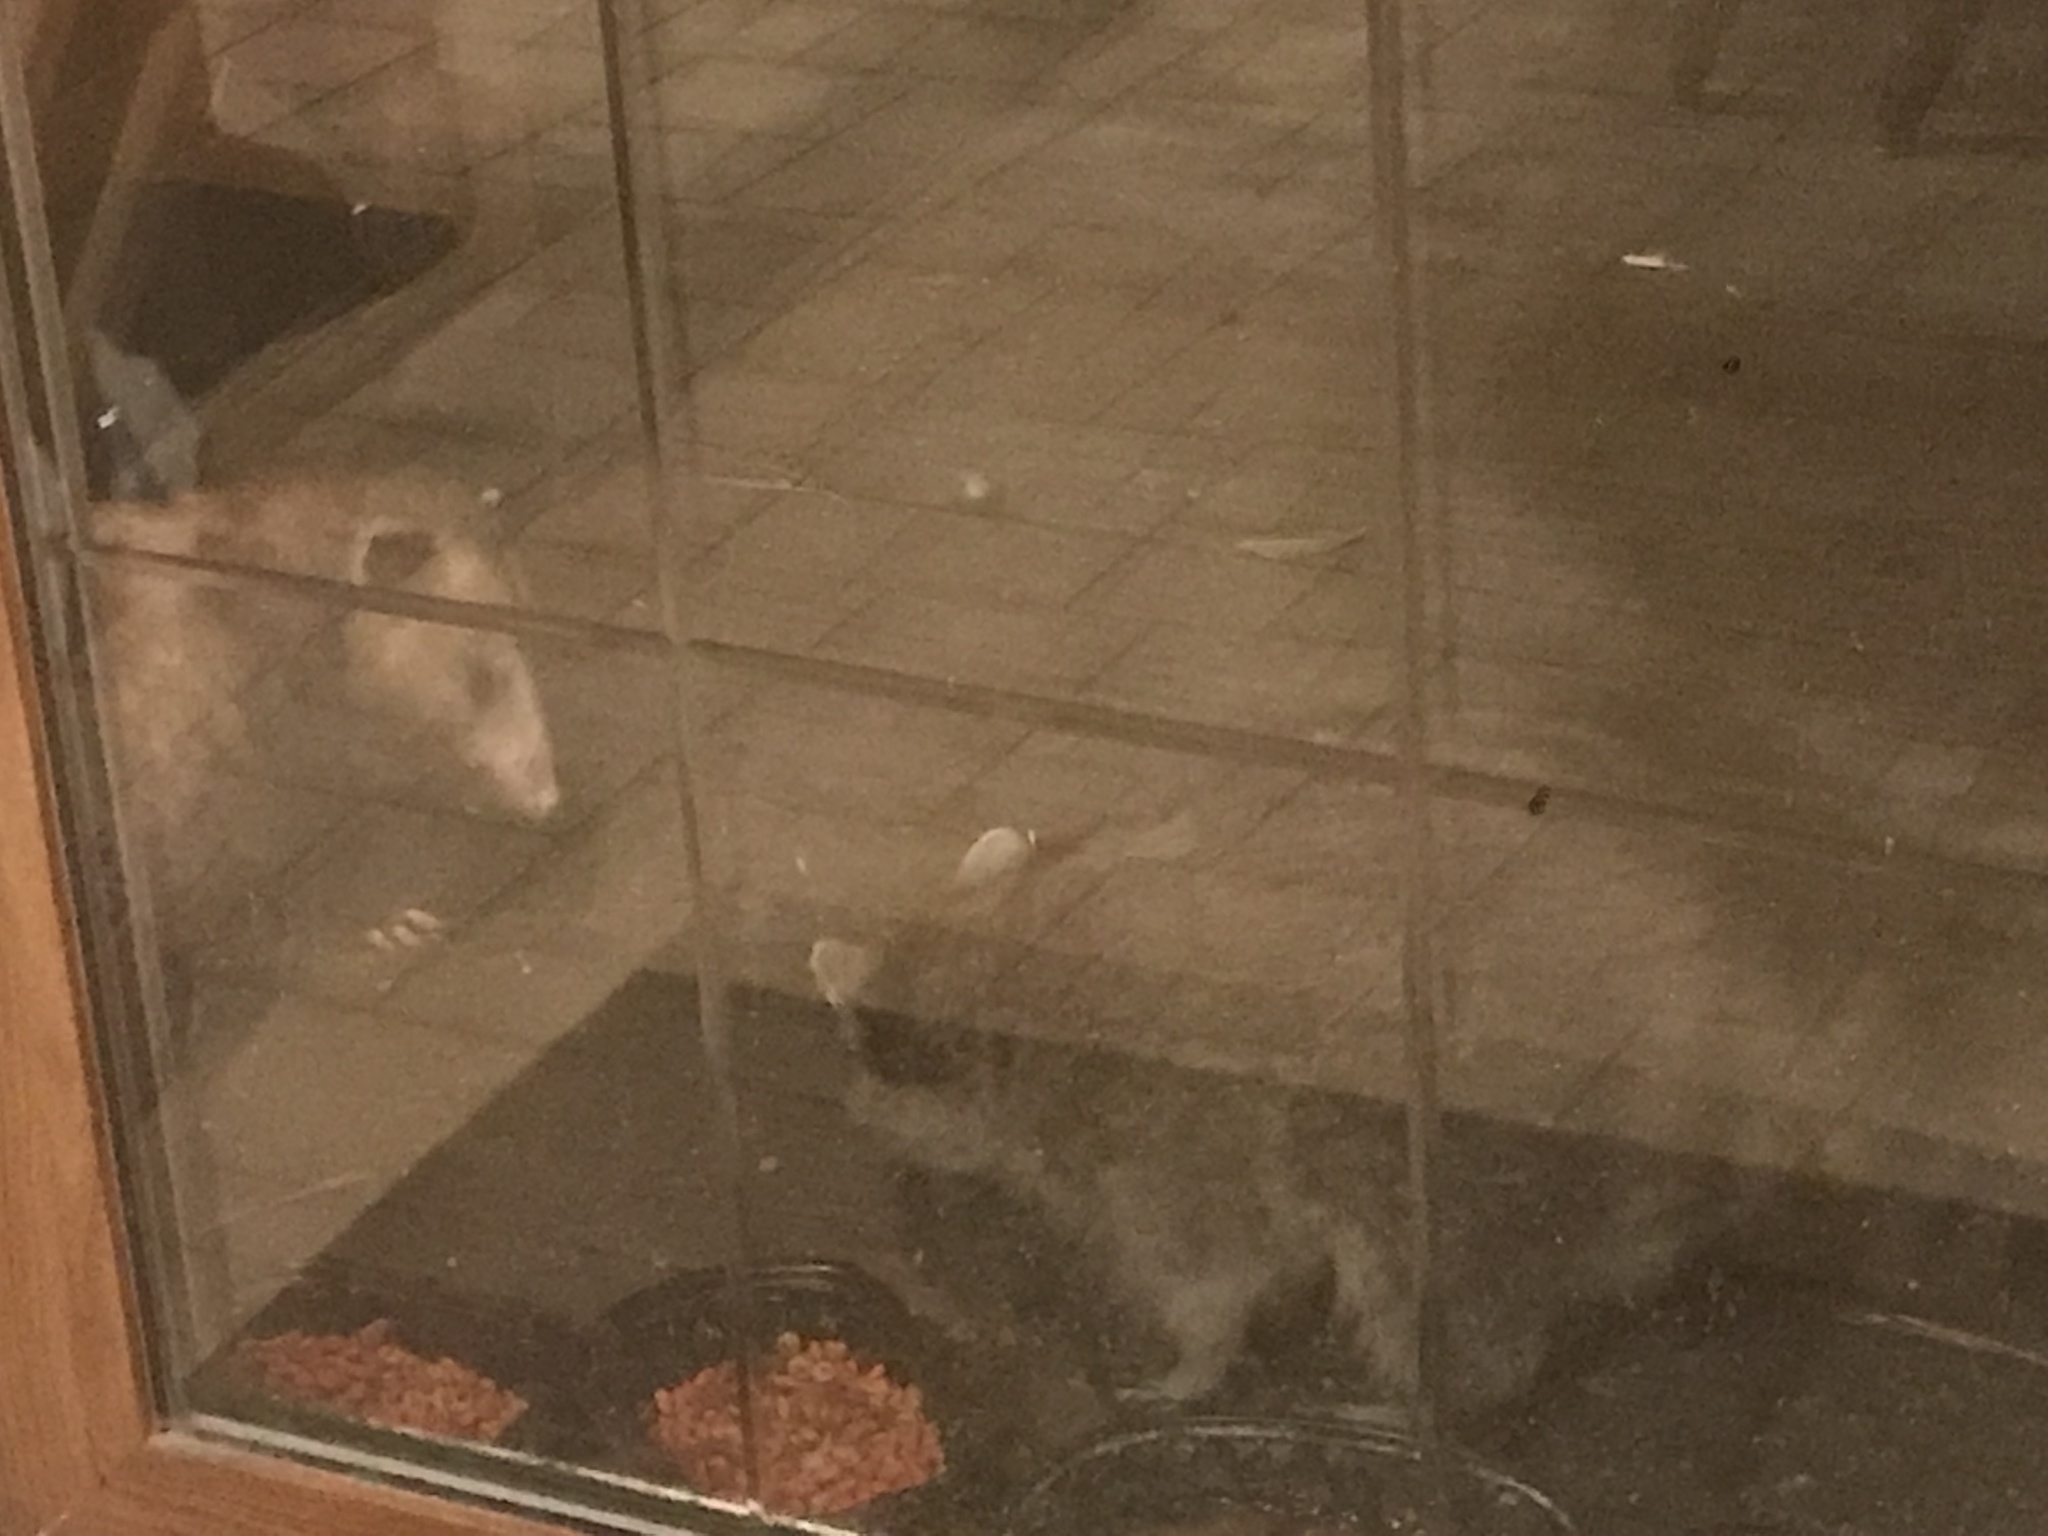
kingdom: Animalia
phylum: Chordata
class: Mammalia
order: Didelphimorphia
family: Didelphidae
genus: Didelphis
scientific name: Didelphis virginiana
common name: Virginia opossum
